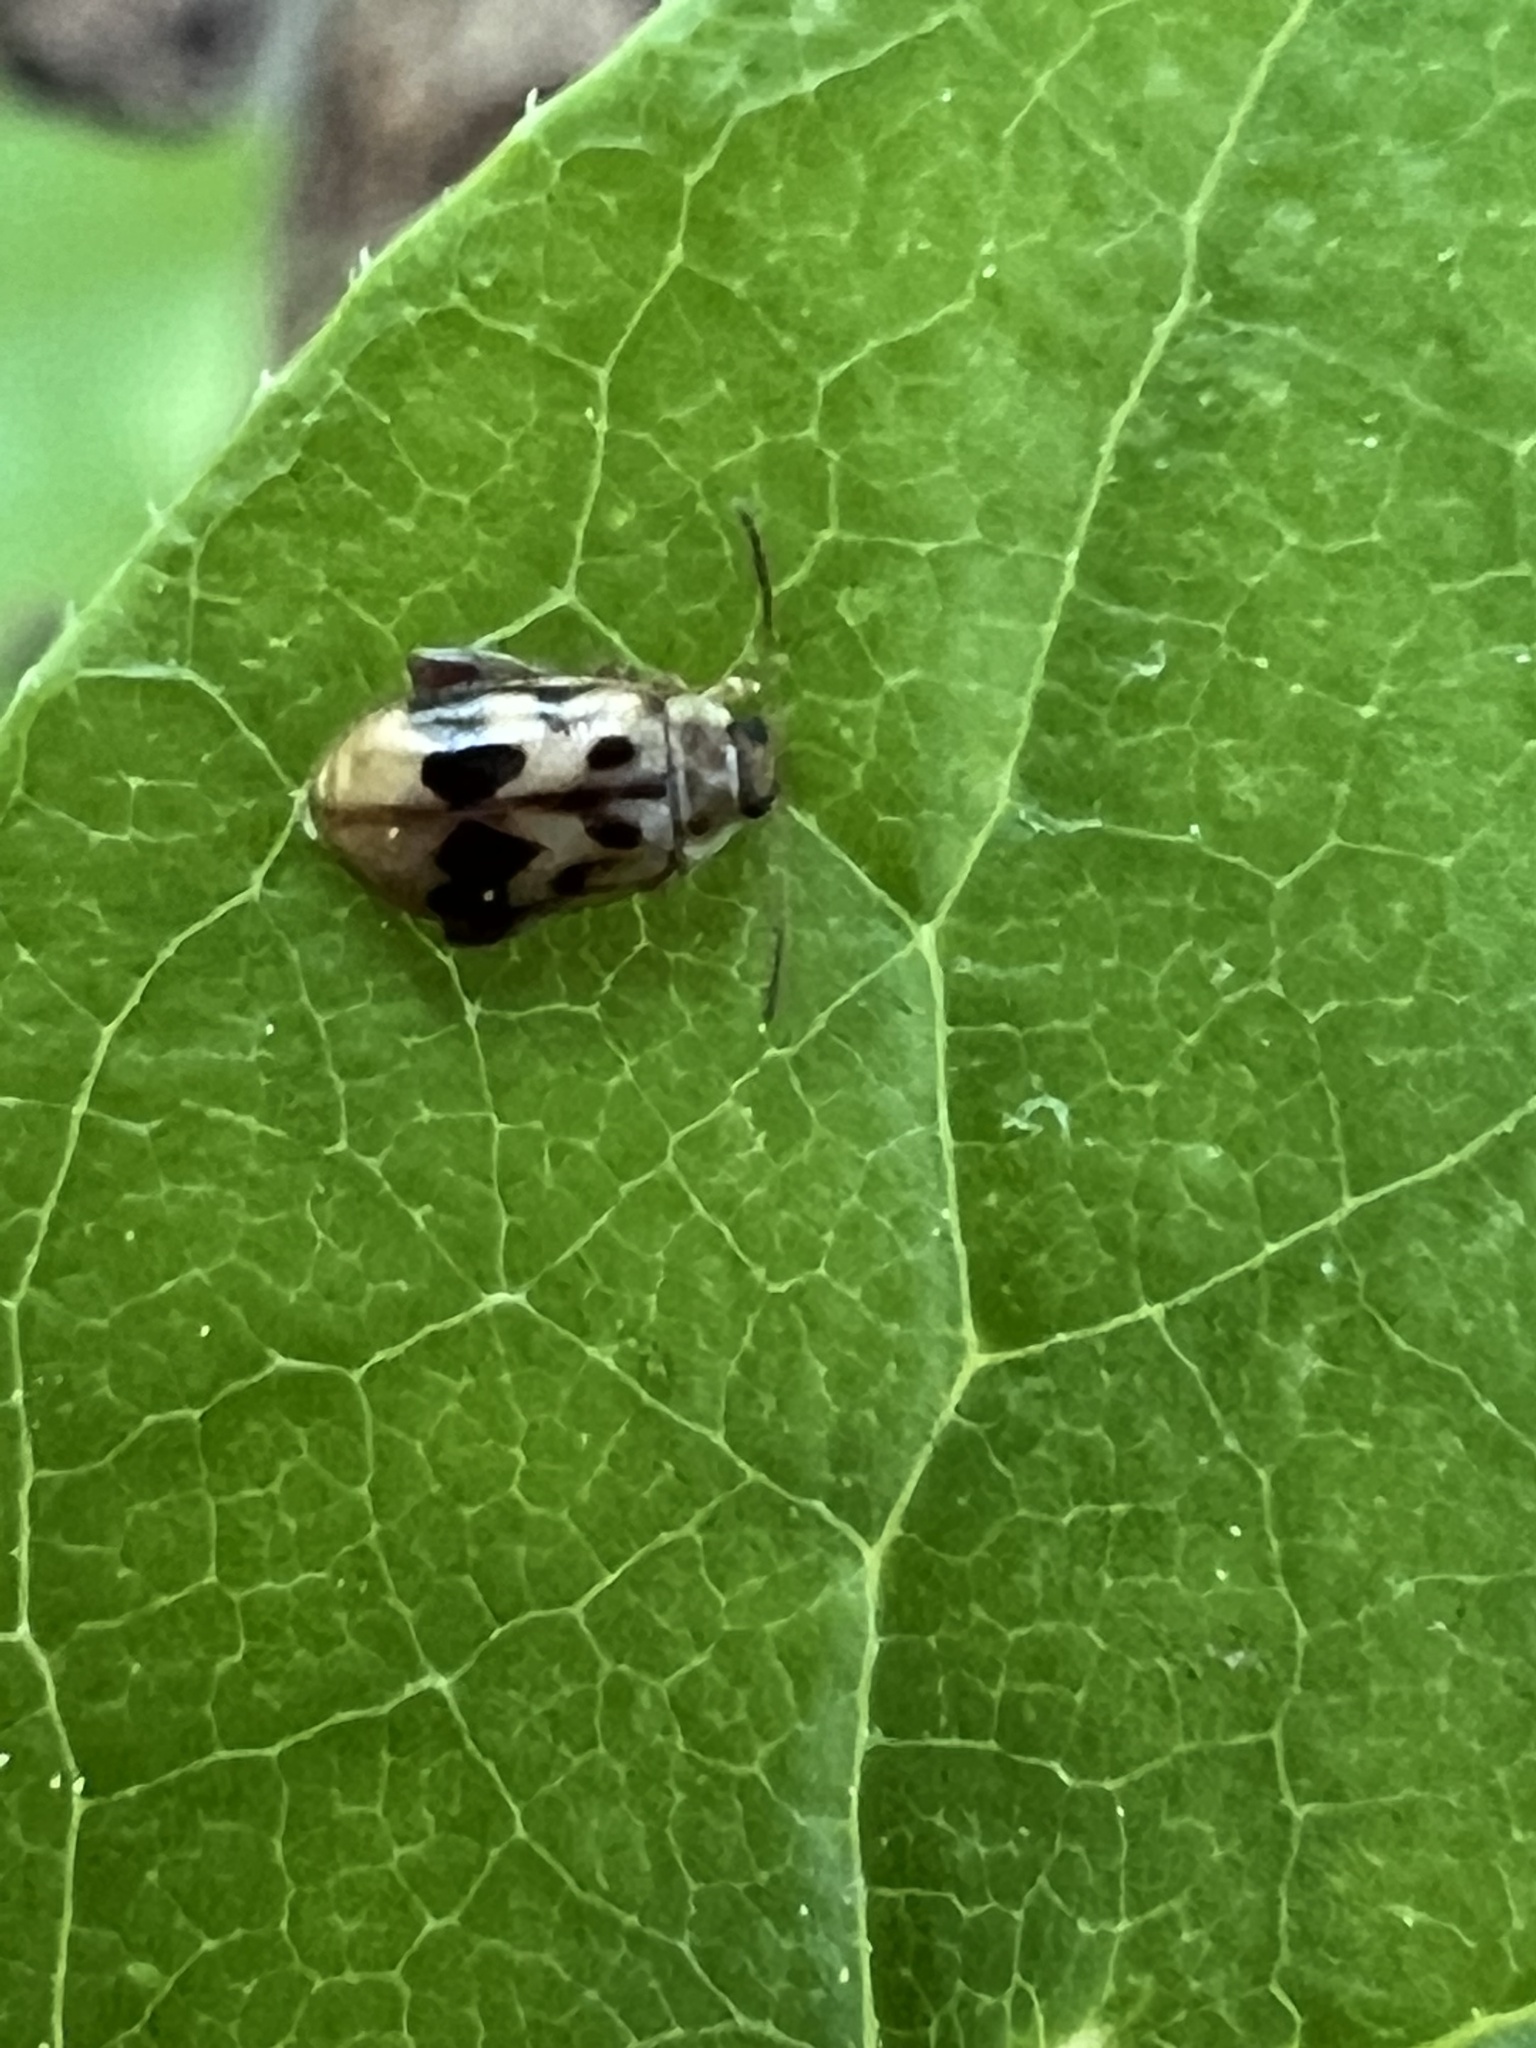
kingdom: Animalia
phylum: Arthropoda
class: Insecta
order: Coleoptera
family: Chrysomelidae
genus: Capraita
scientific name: Capraita sexmaculata
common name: Charlie brown flea beetle
